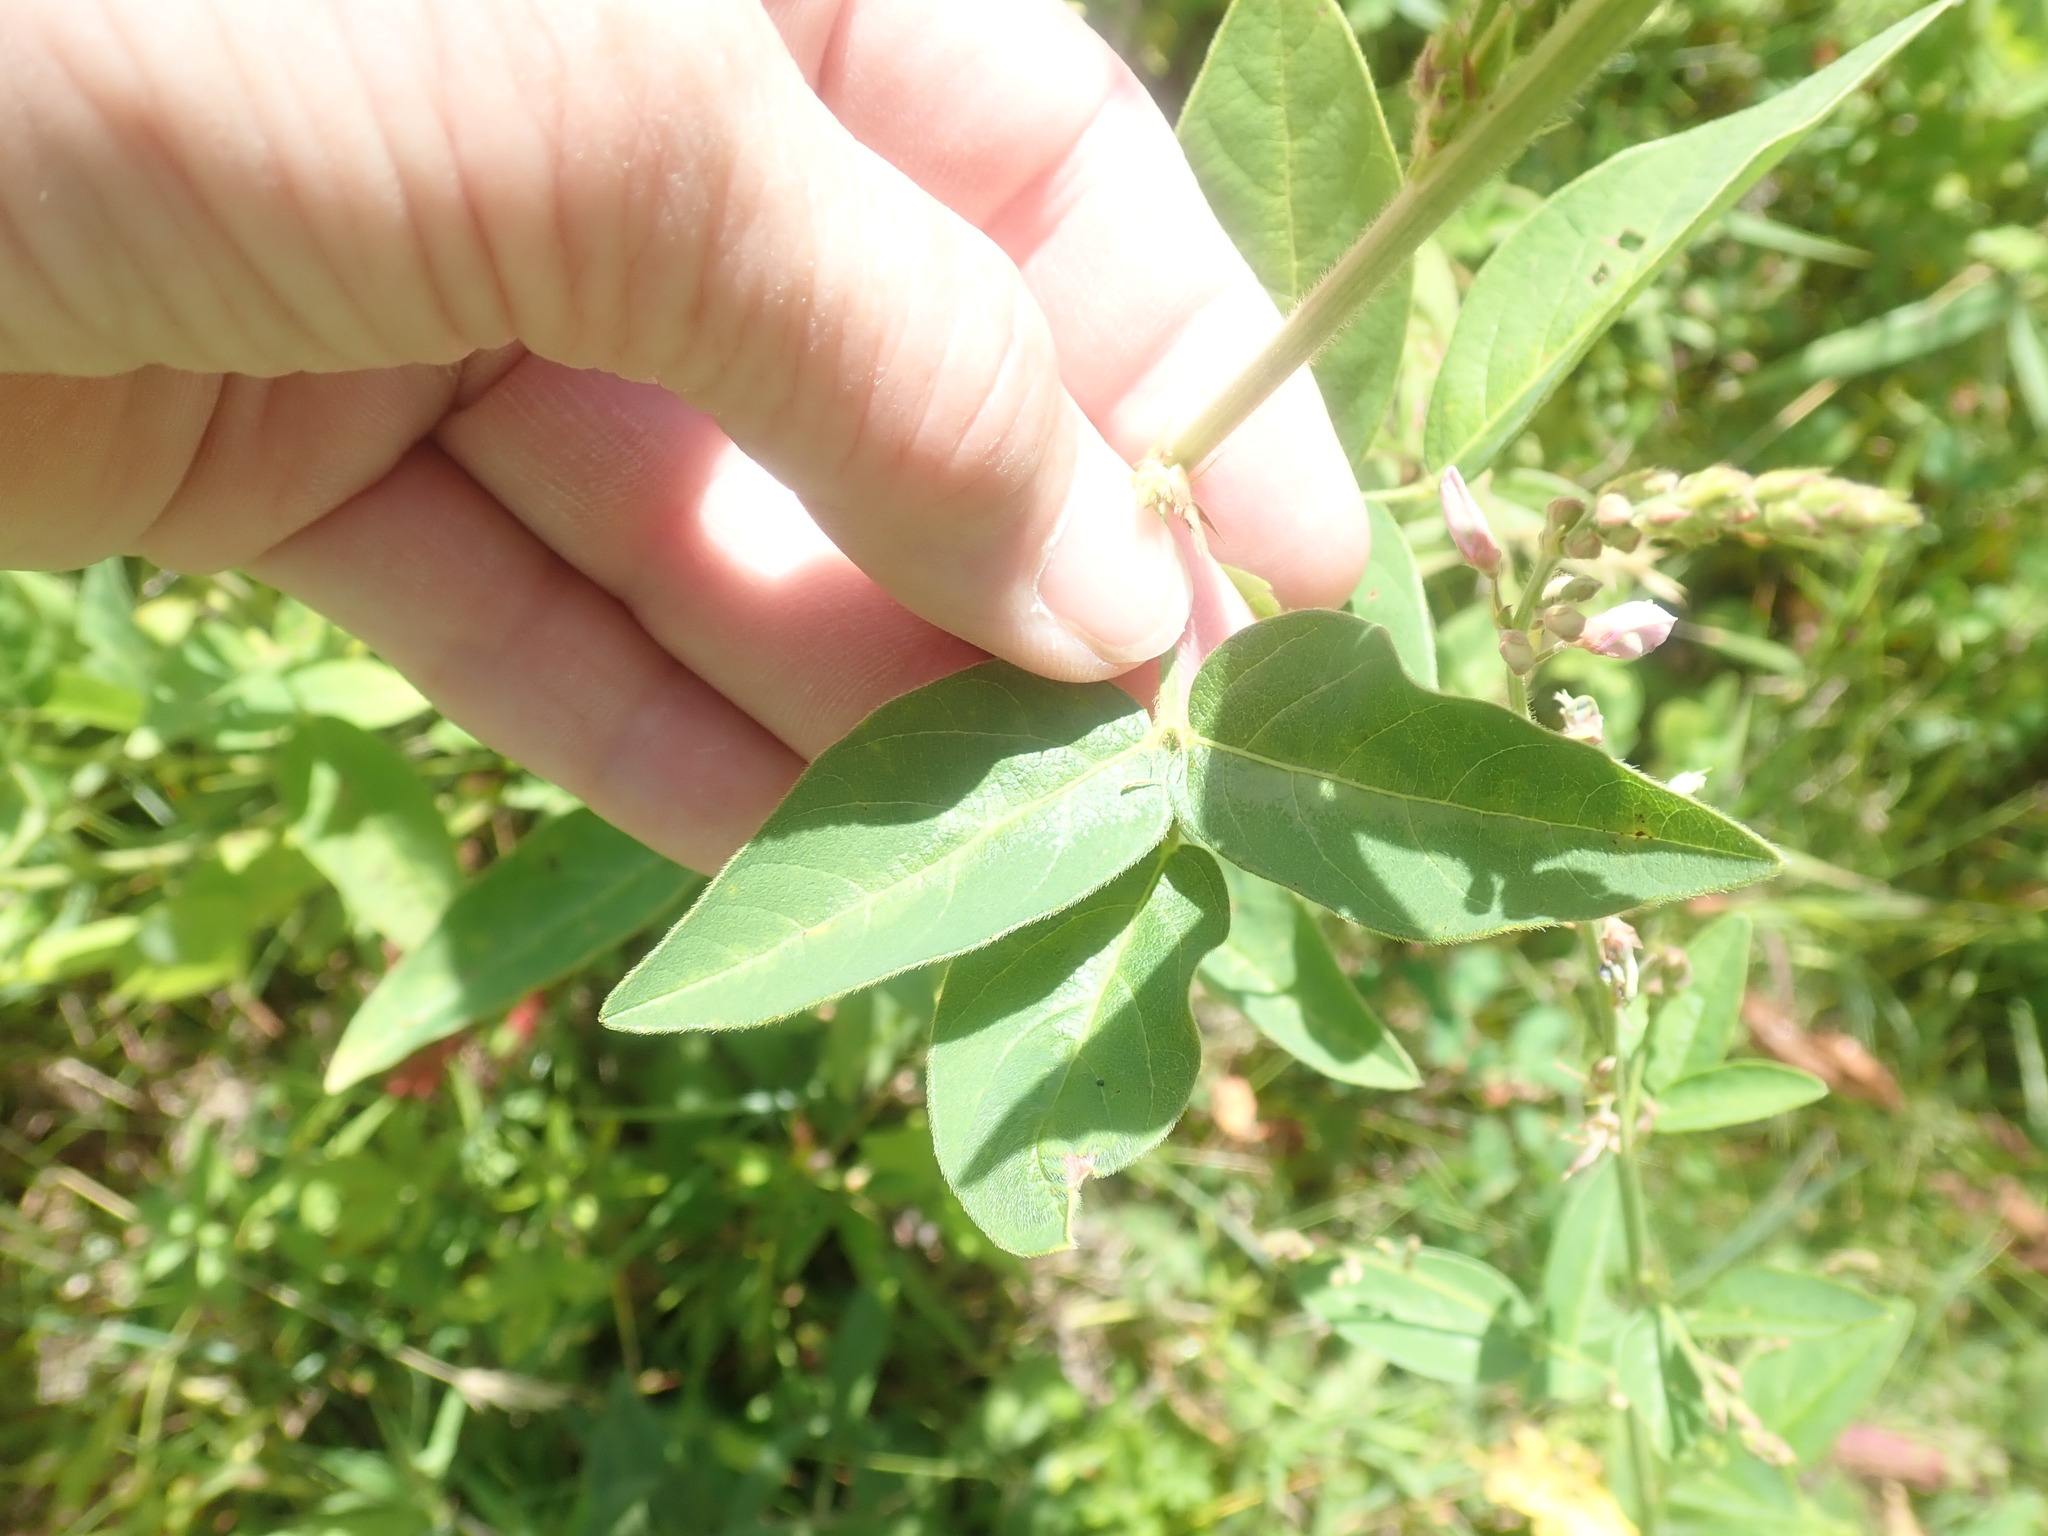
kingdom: Plantae
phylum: Tracheophyta
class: Magnoliopsida
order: Fabales
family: Fabaceae
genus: Desmodium
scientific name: Desmodium
